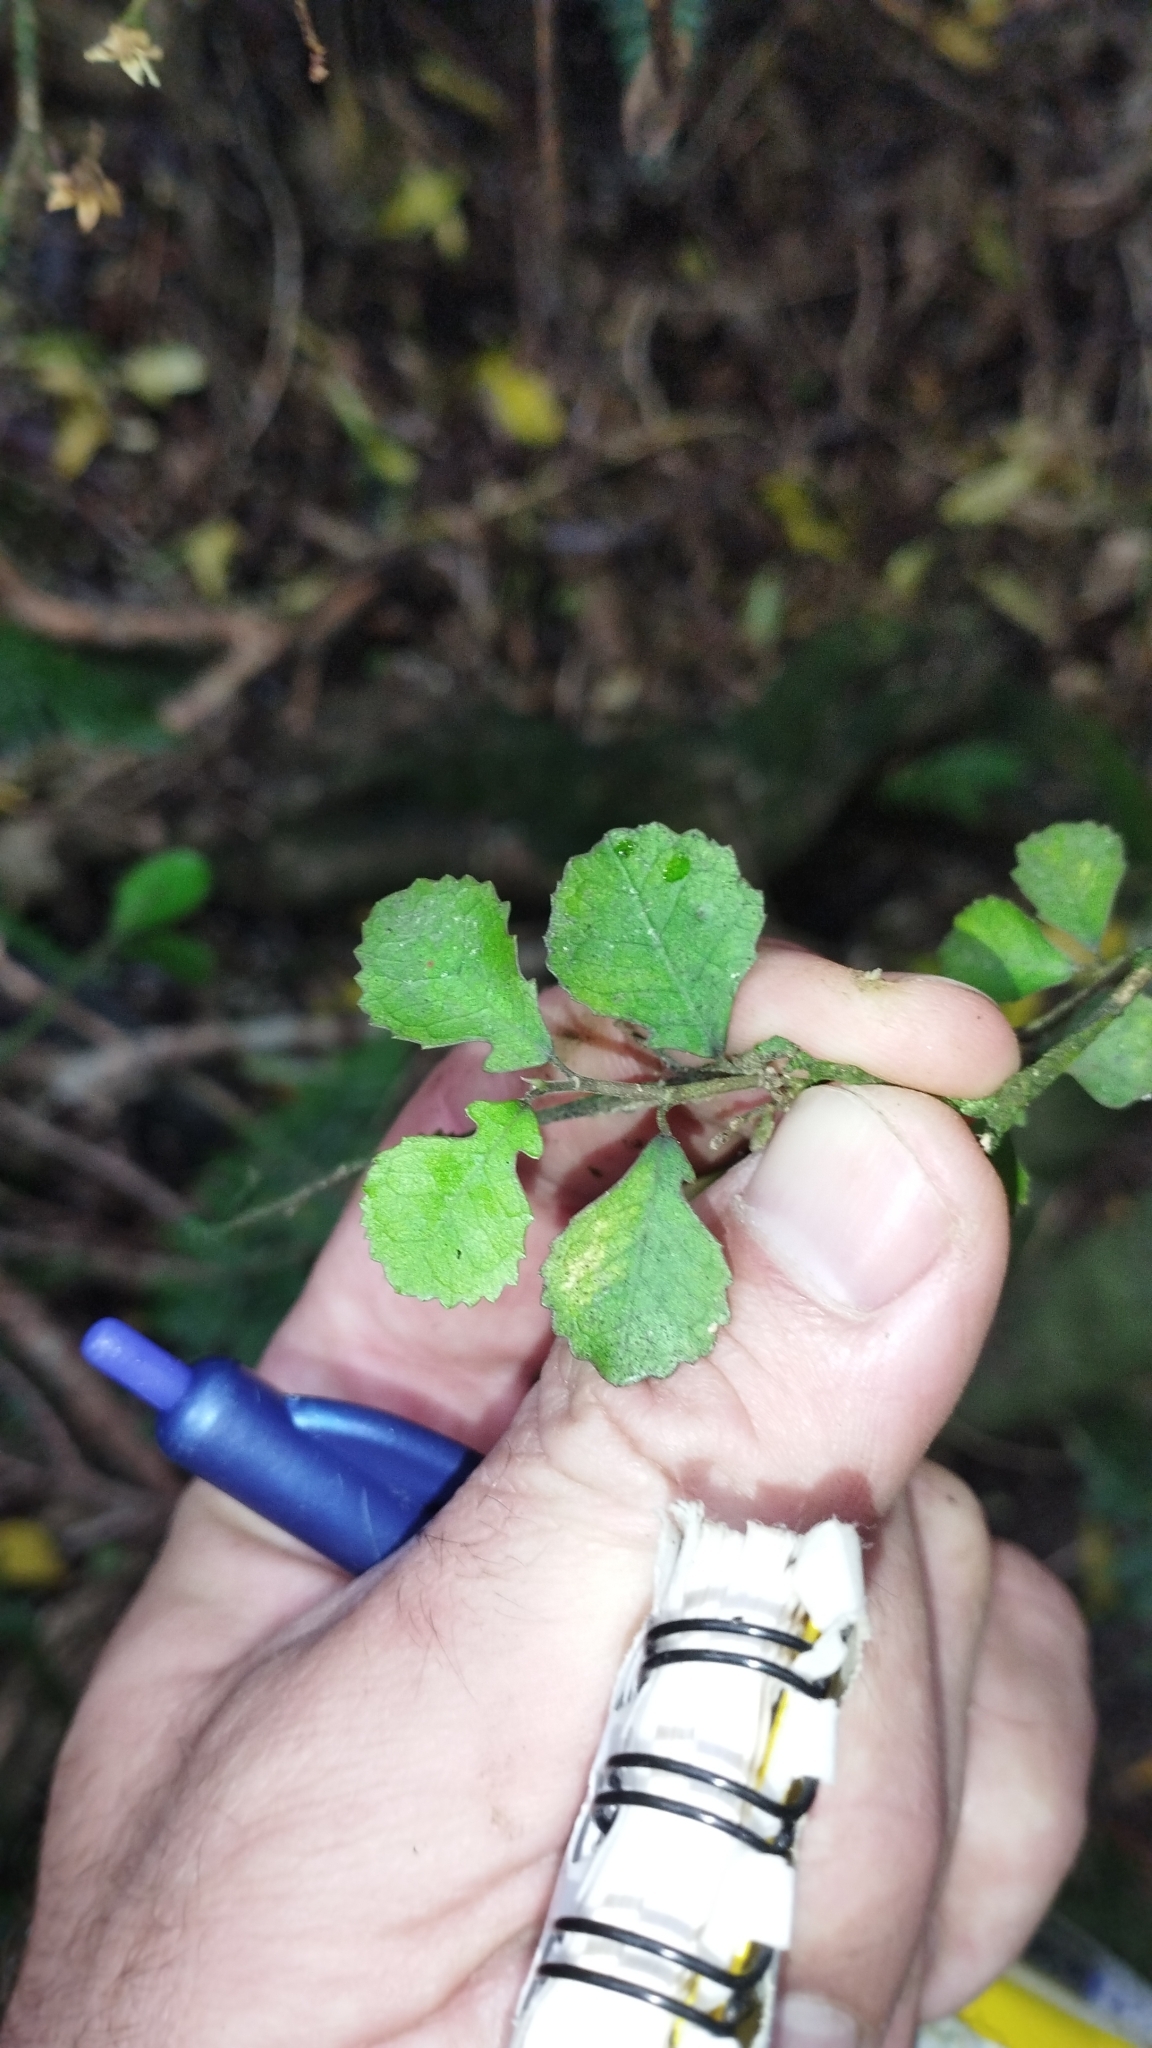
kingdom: Plantae
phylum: Tracheophyta
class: Magnoliopsida
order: Rosales
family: Moraceae
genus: Paratrophis
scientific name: Paratrophis microphylla
